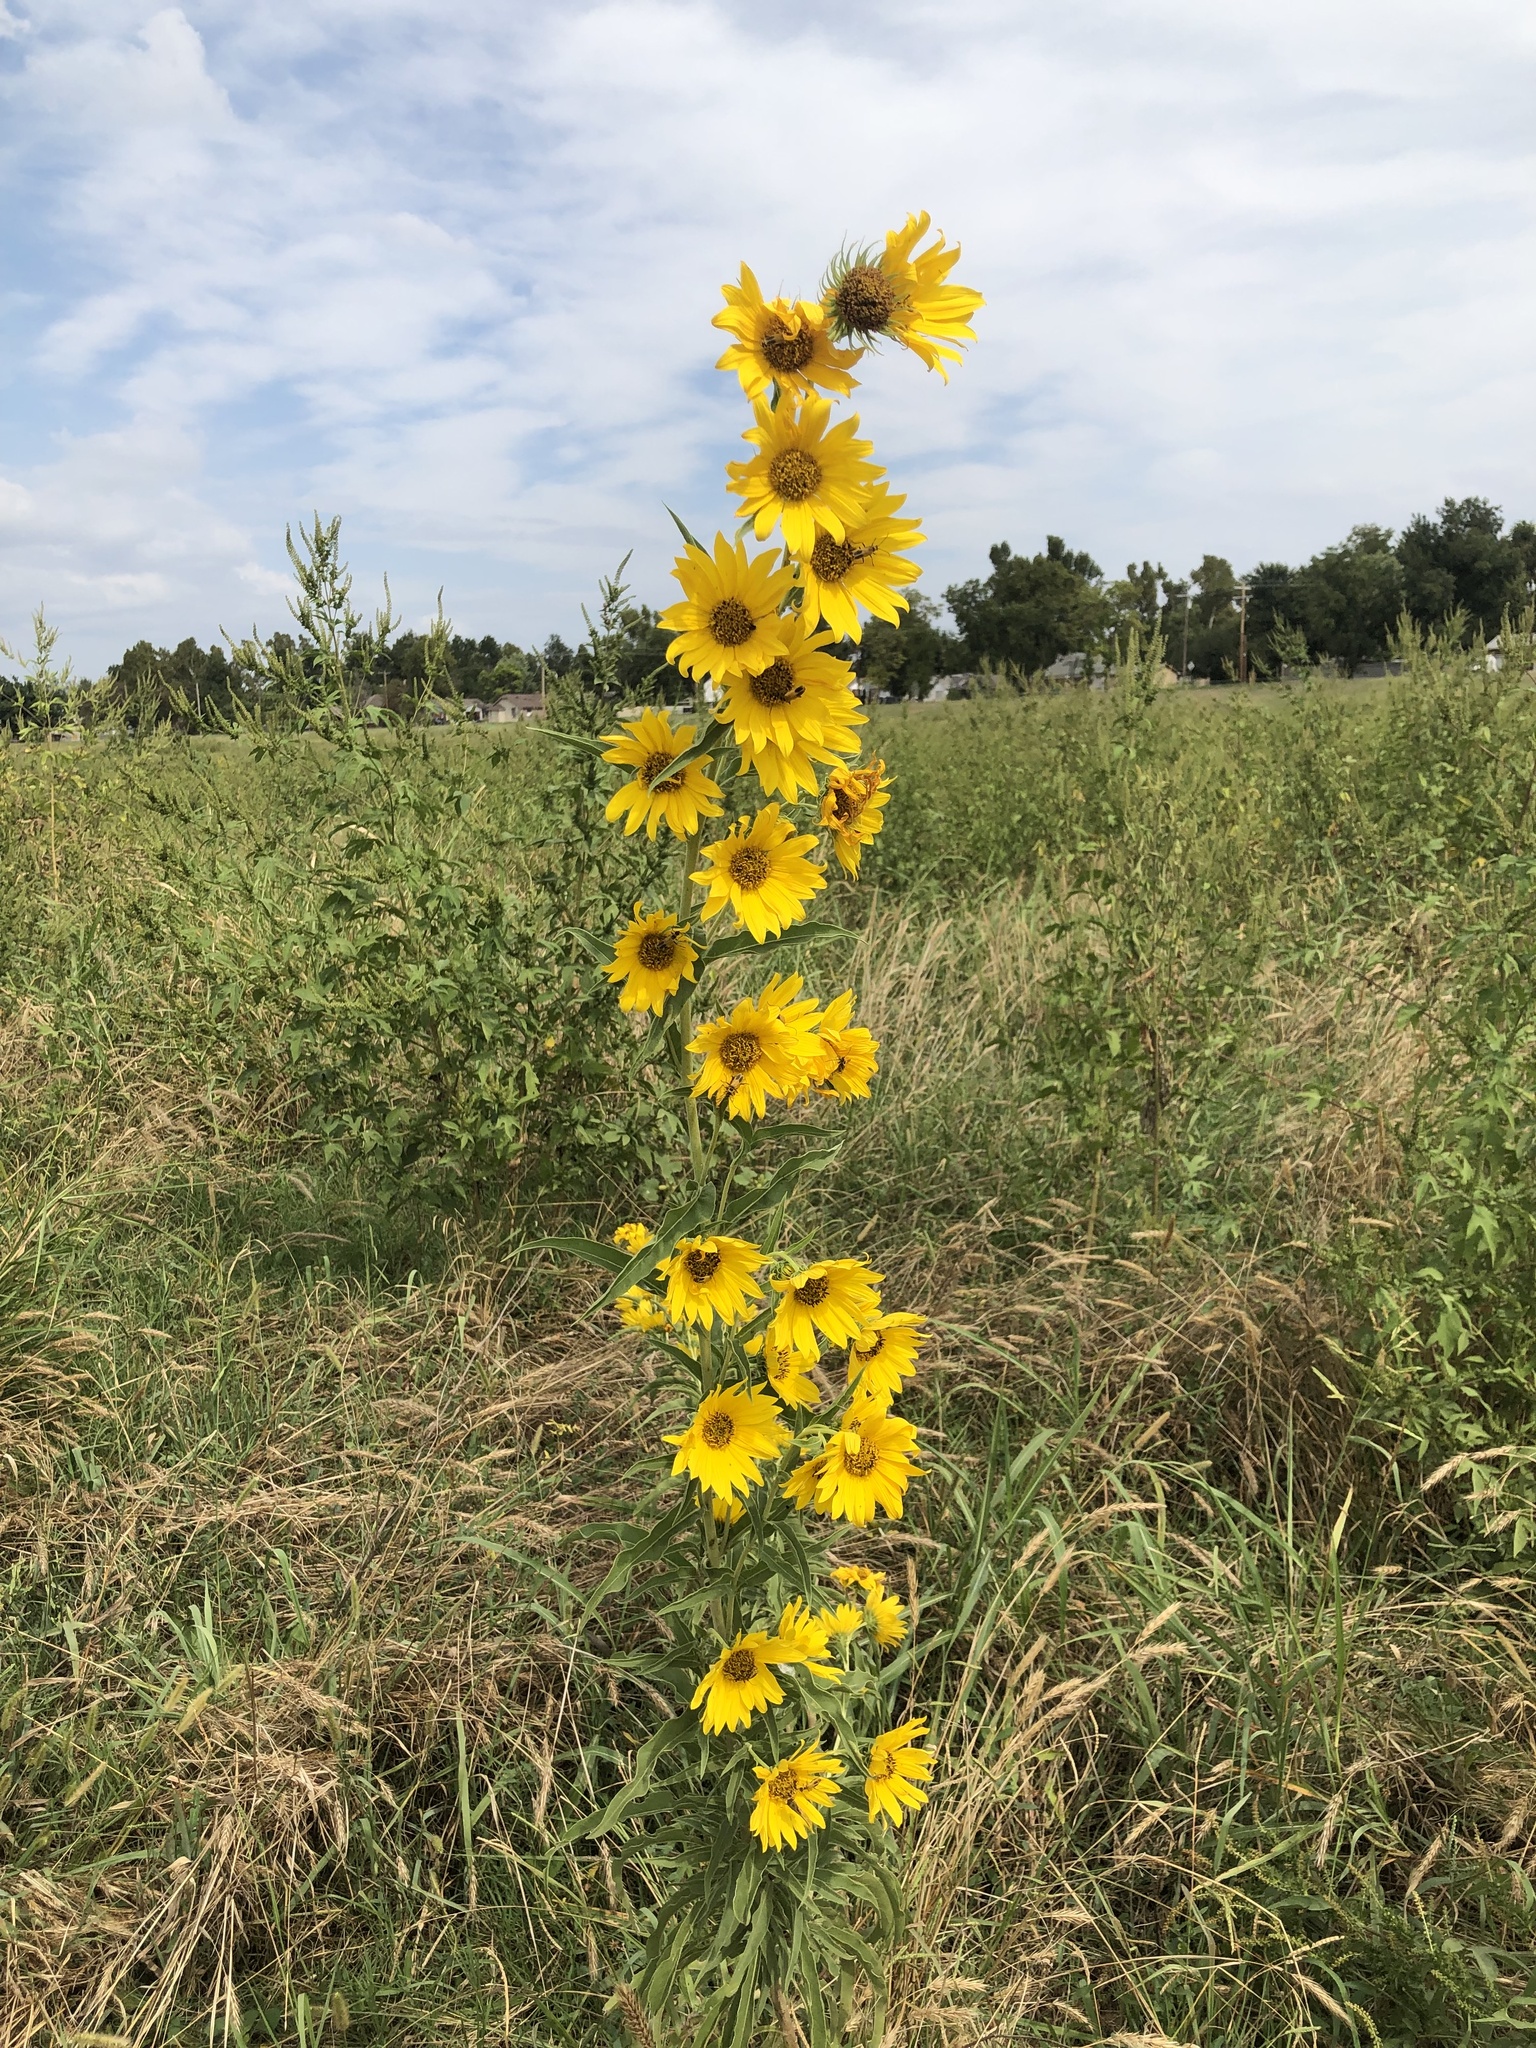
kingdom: Plantae
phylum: Tracheophyta
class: Magnoliopsida
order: Asterales
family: Asteraceae
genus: Helianthus
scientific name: Helianthus maximiliani
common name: Maximilian's sunflower
